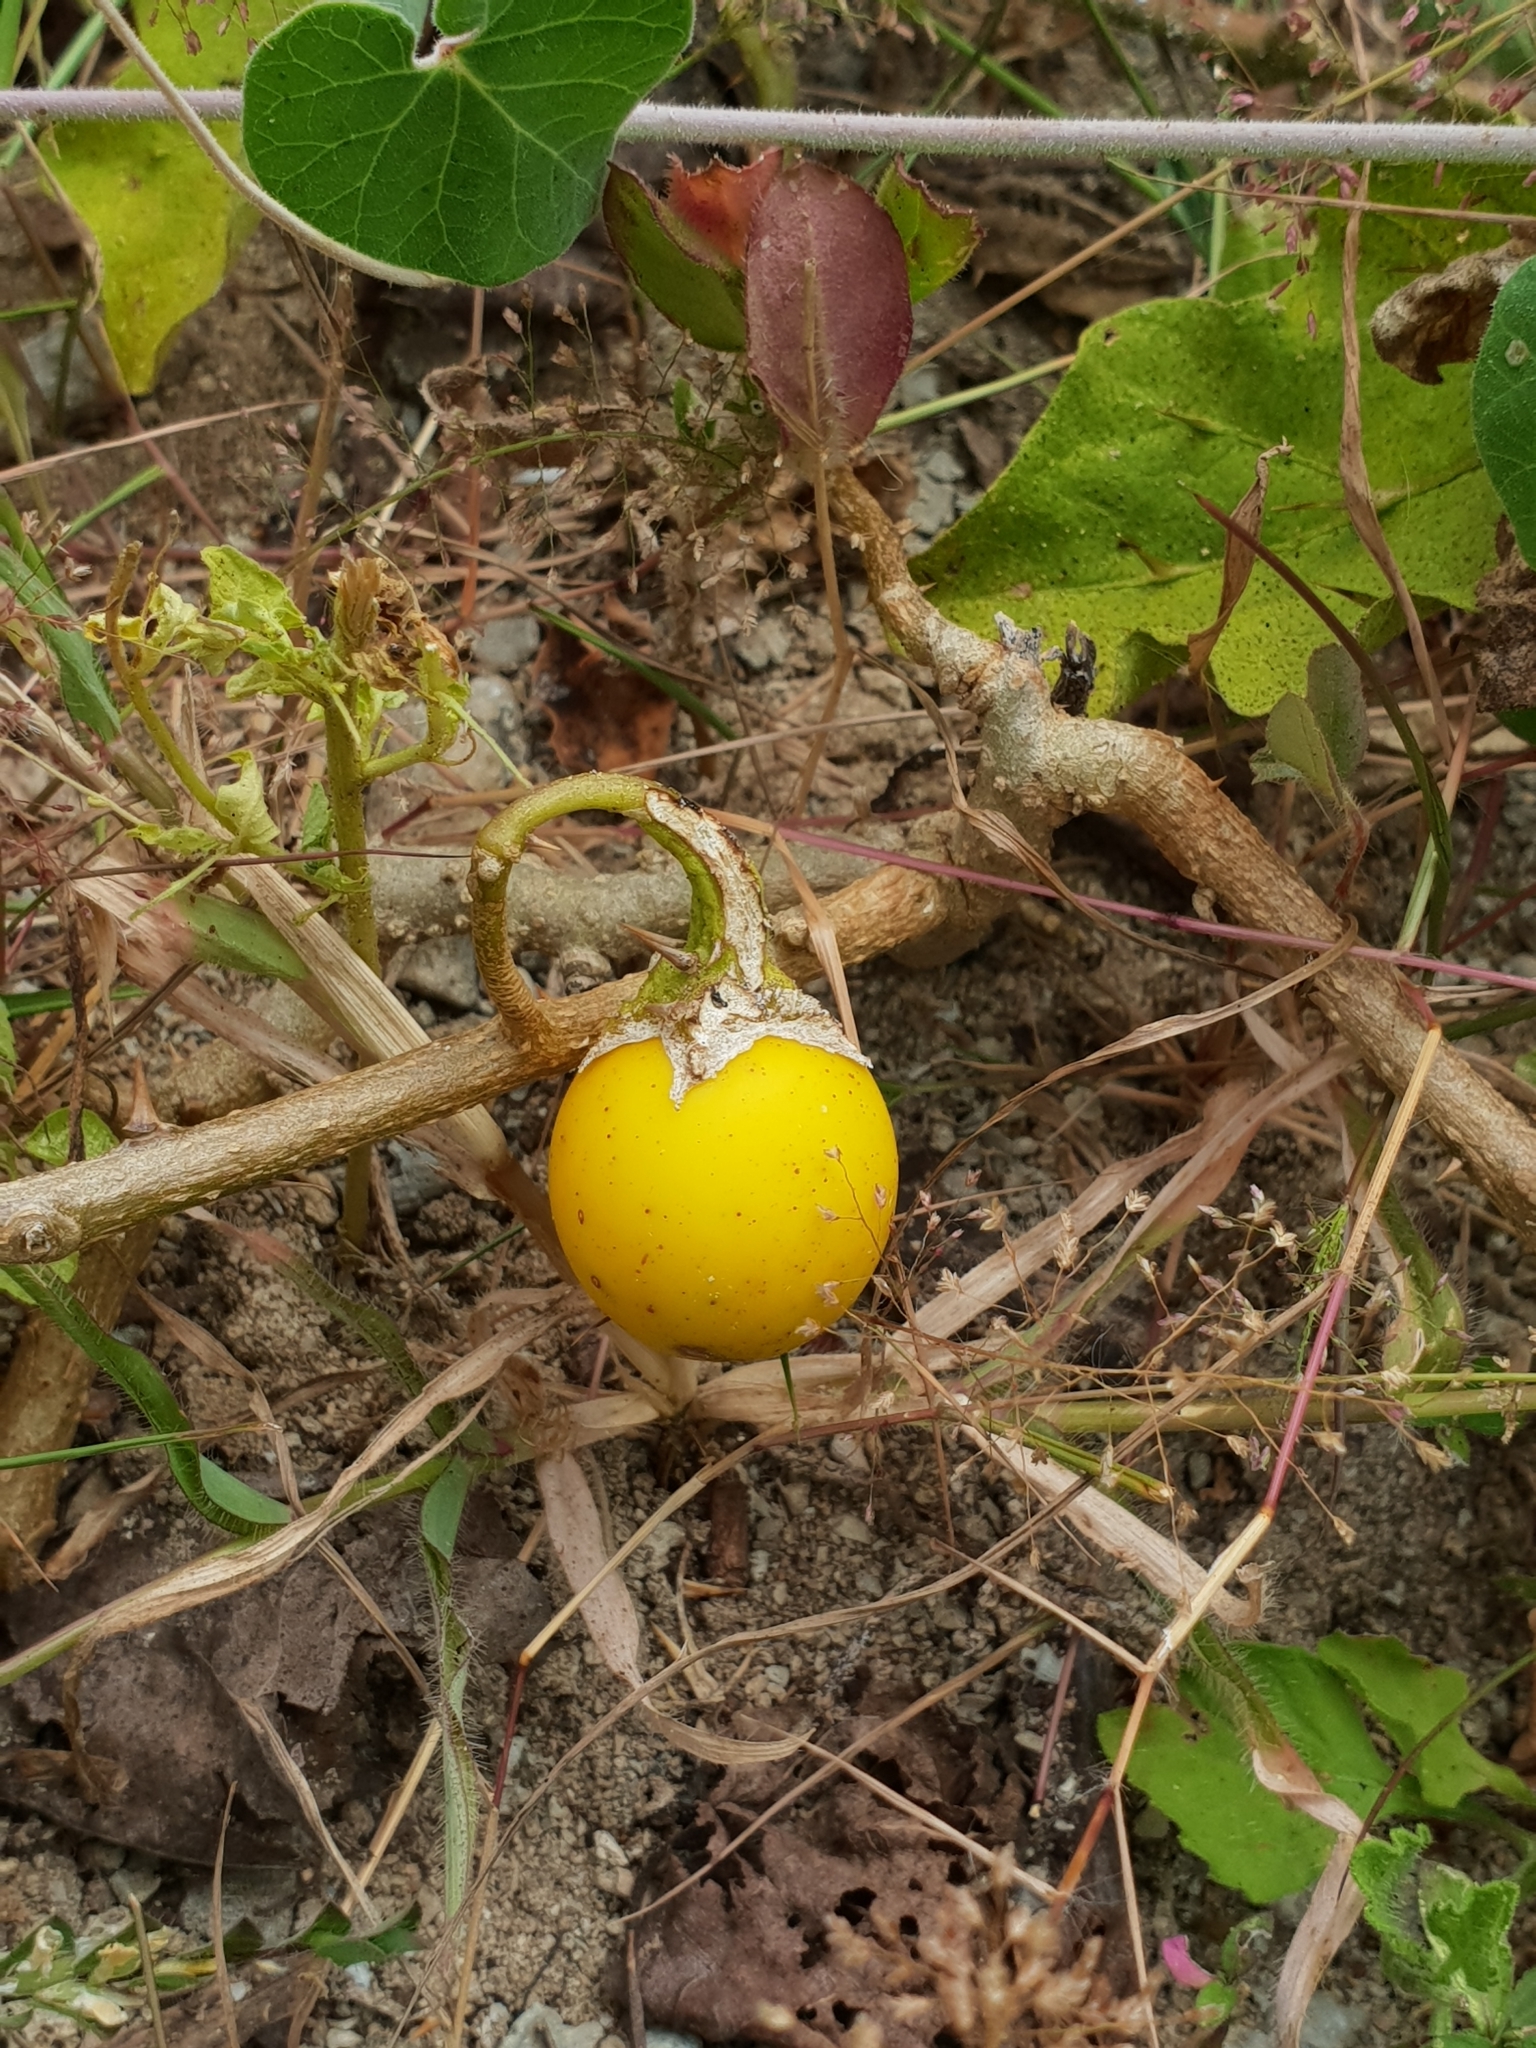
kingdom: Plantae
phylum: Tracheophyta
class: Magnoliopsida
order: Solanales
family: Solanaceae
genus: Solanum
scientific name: Solanum insanum
